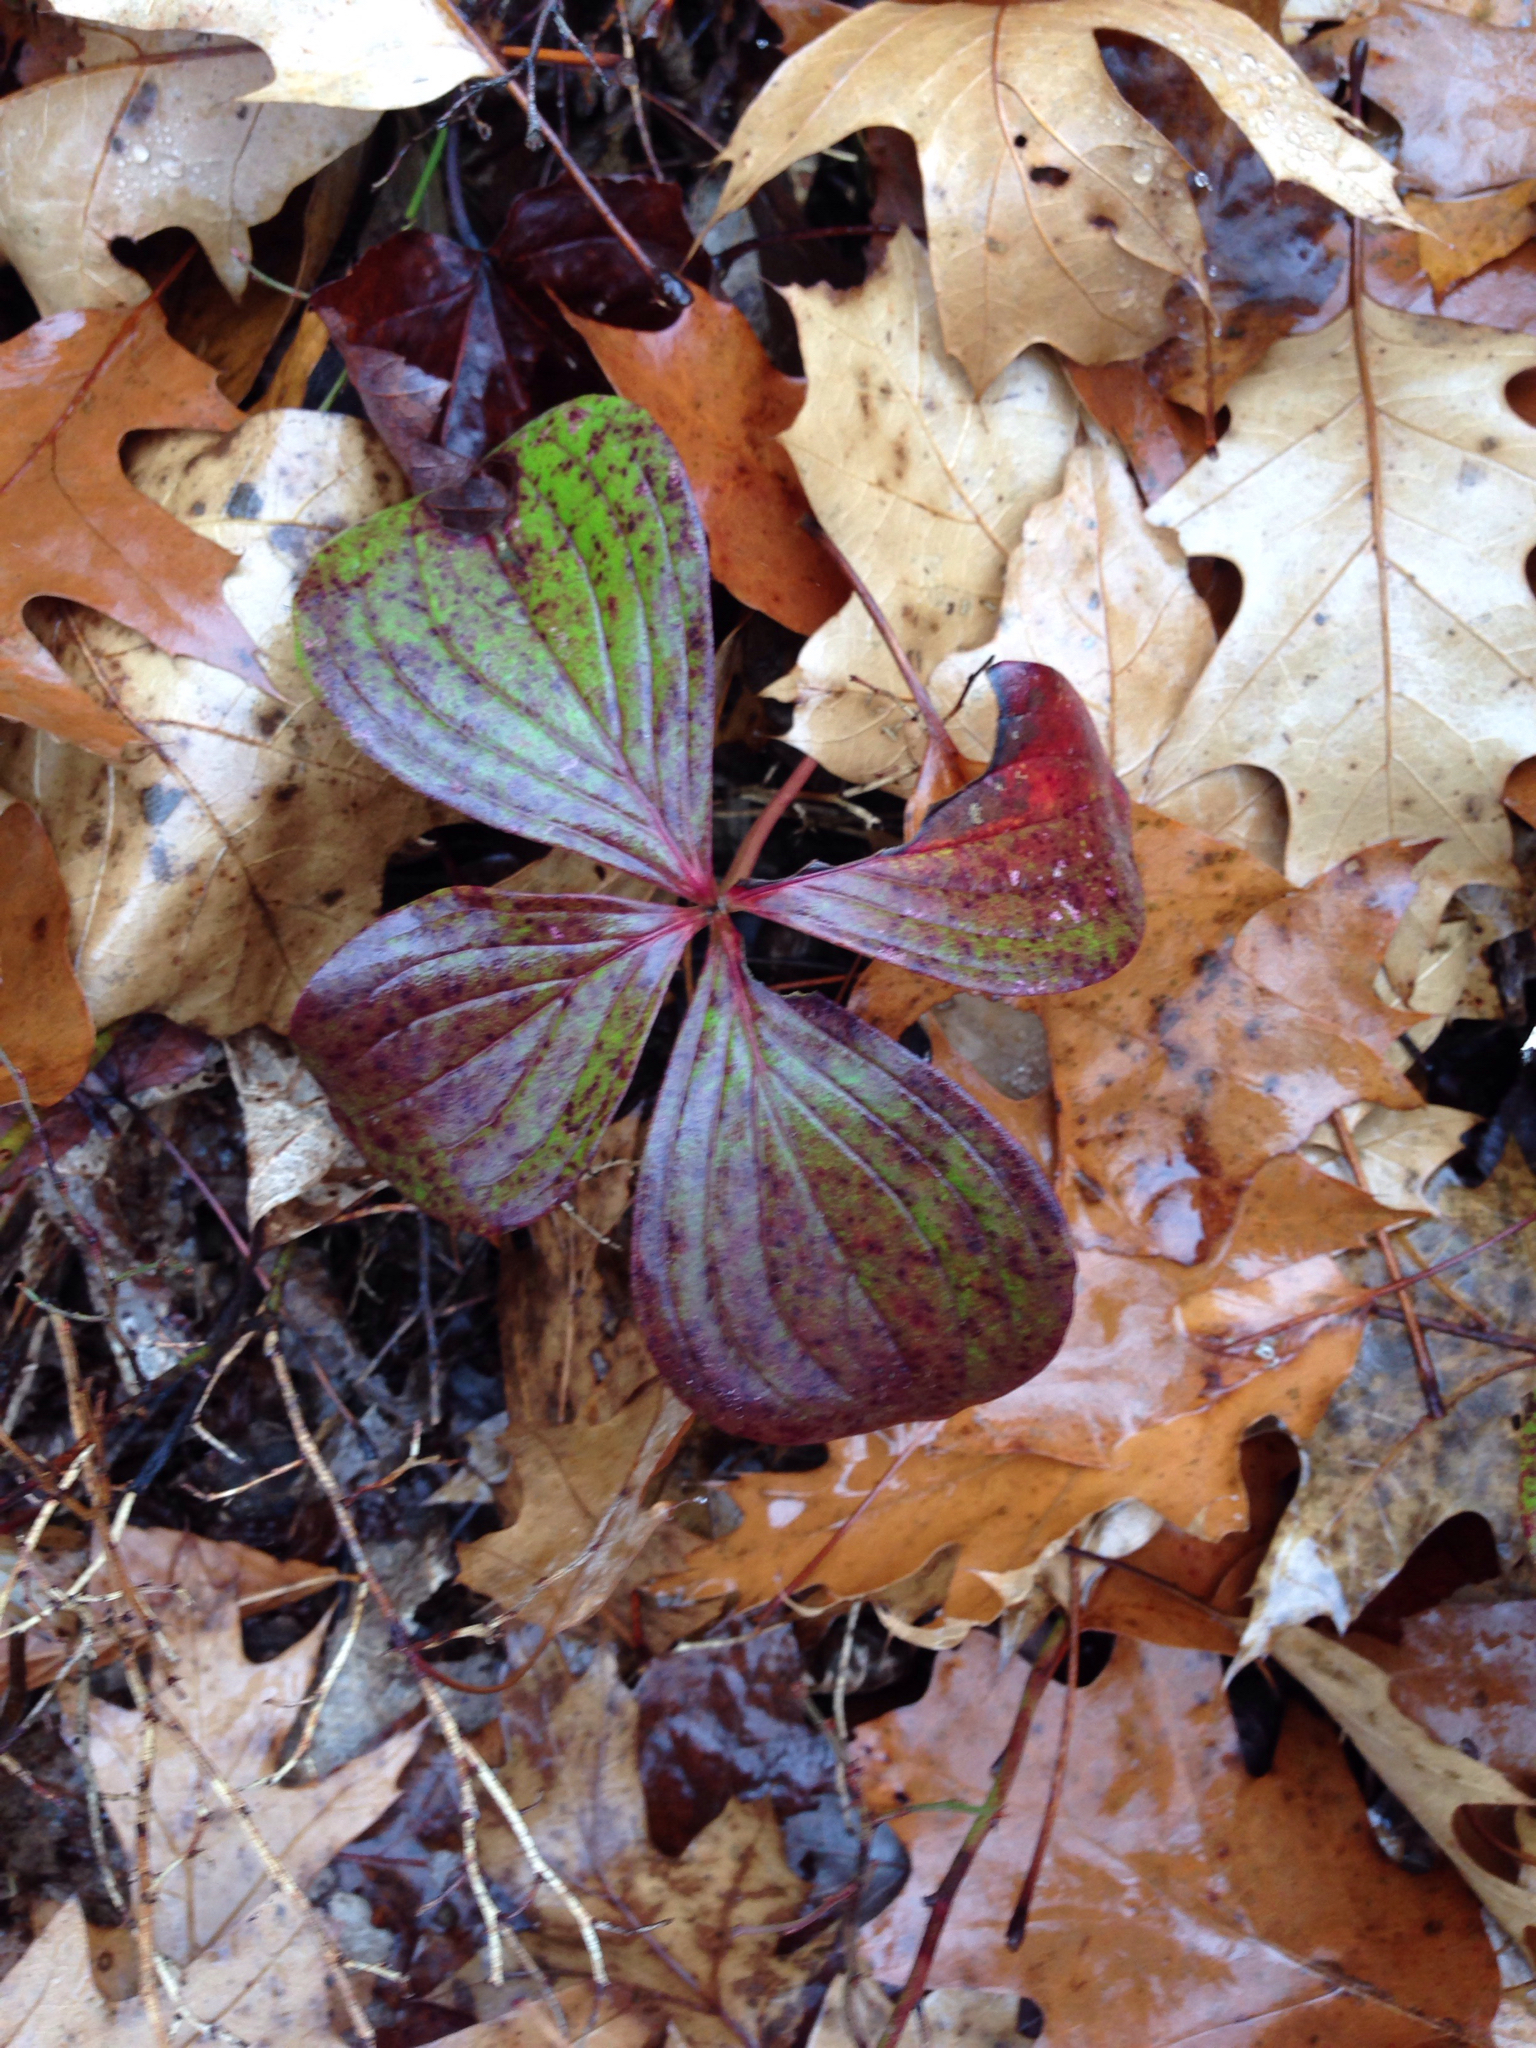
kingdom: Plantae
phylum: Tracheophyta
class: Magnoliopsida
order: Cornales
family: Cornaceae
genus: Cornus
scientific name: Cornus canadensis
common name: Creeping dogwood
